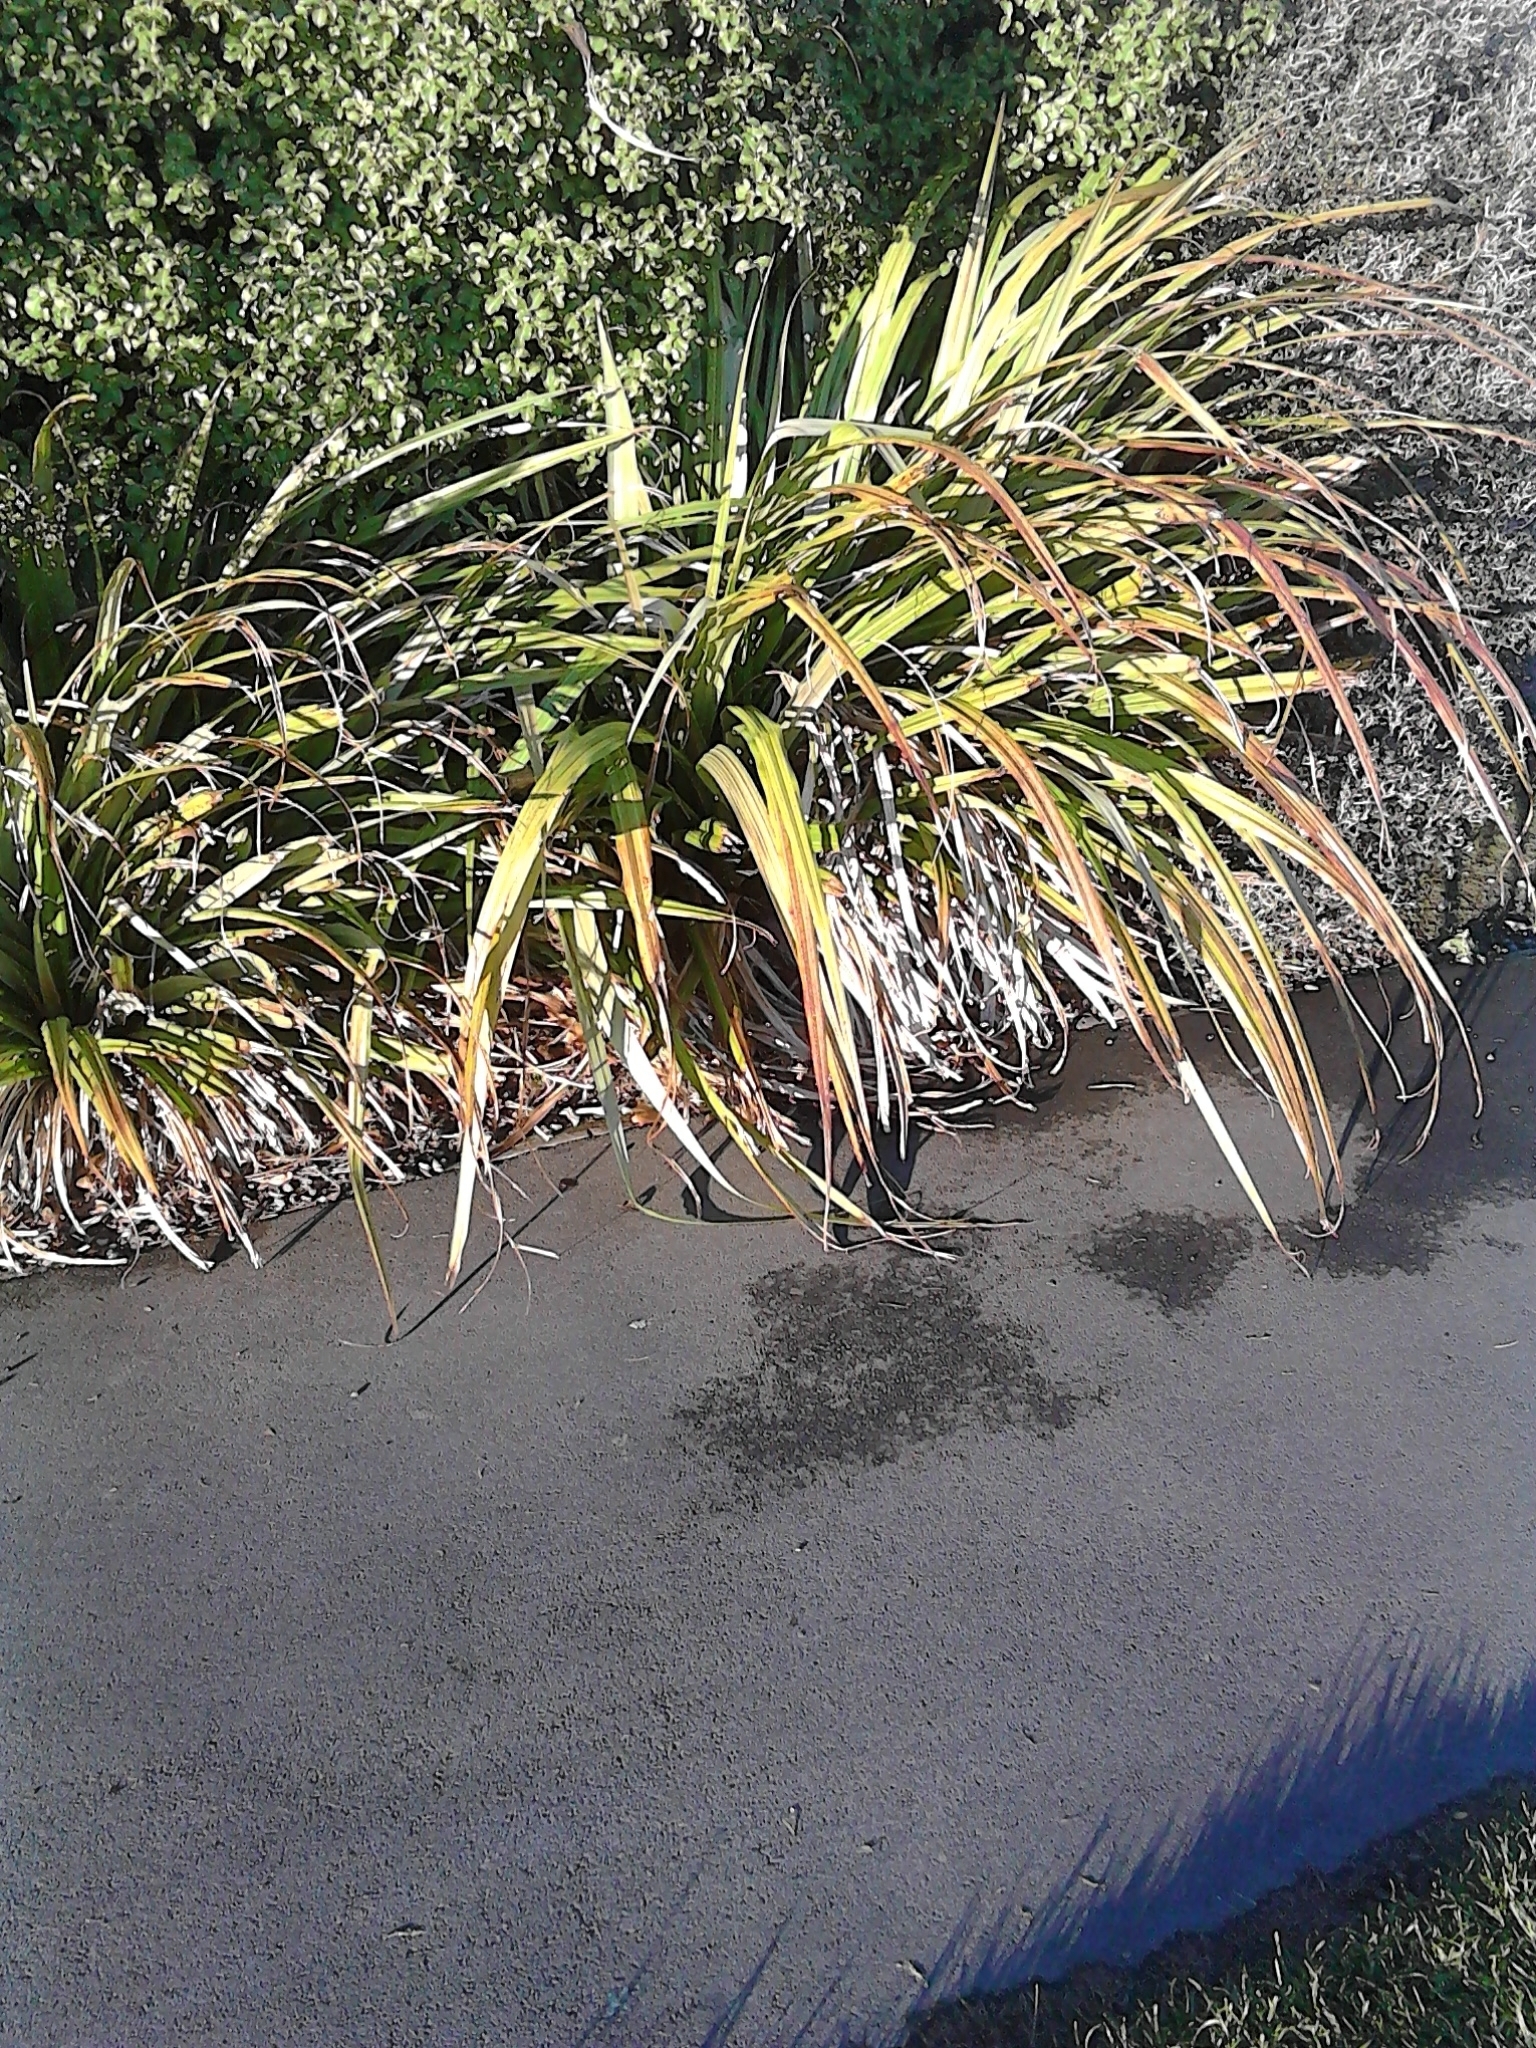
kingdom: Plantae
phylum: Tracheophyta
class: Liliopsida
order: Asparagales
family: Asteliaceae
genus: Astelia
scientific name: Astelia fragrans
